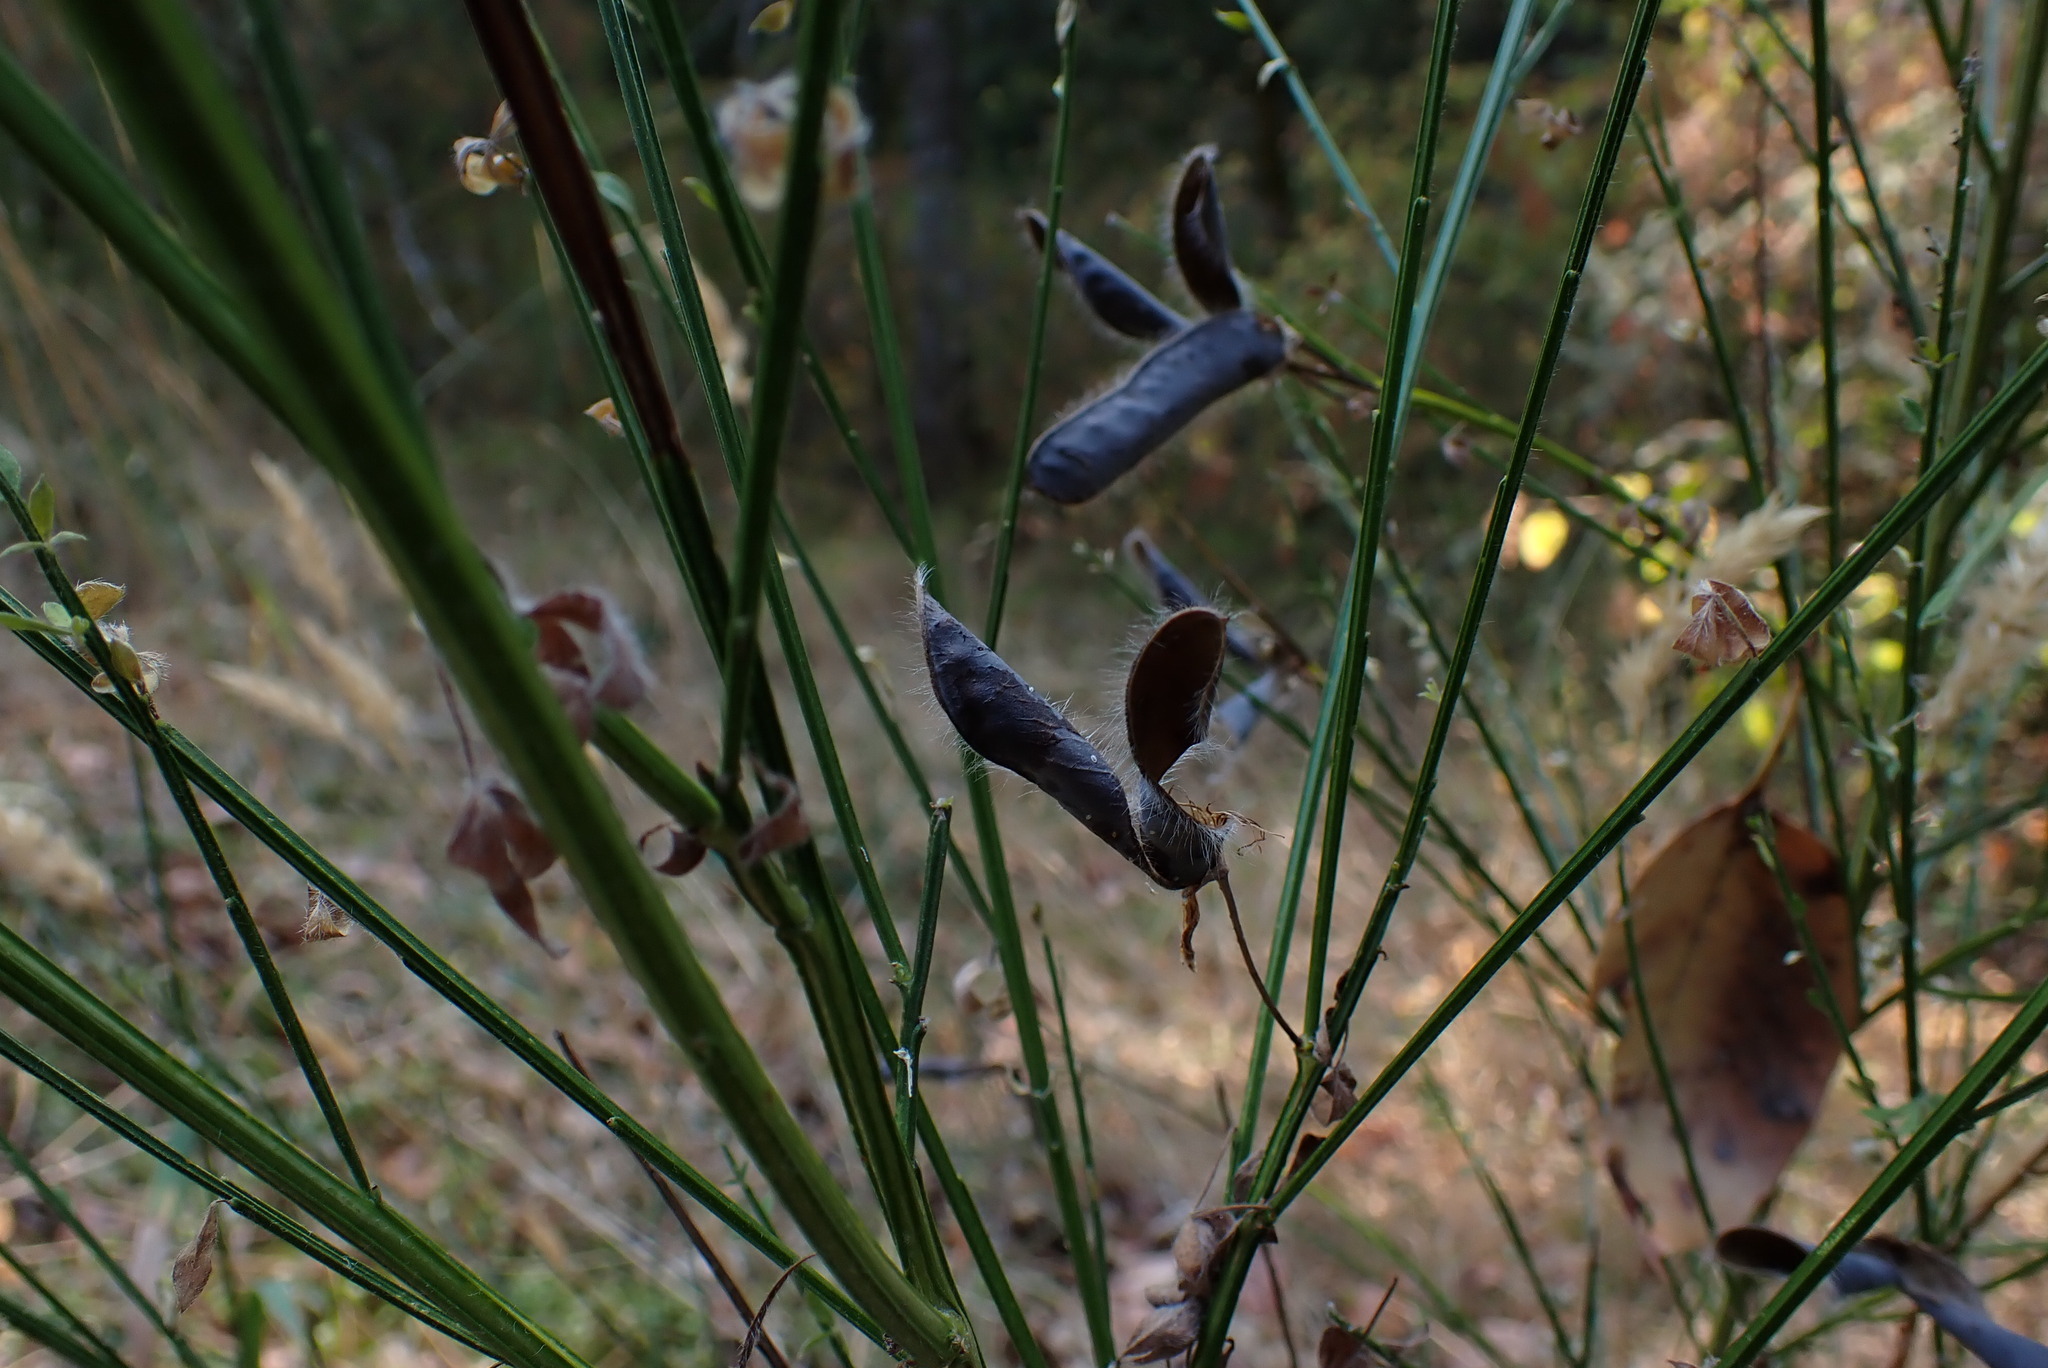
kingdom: Plantae
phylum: Tracheophyta
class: Magnoliopsida
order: Fabales
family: Fabaceae
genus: Cytisus
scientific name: Cytisus scoparius
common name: Scotch broom
